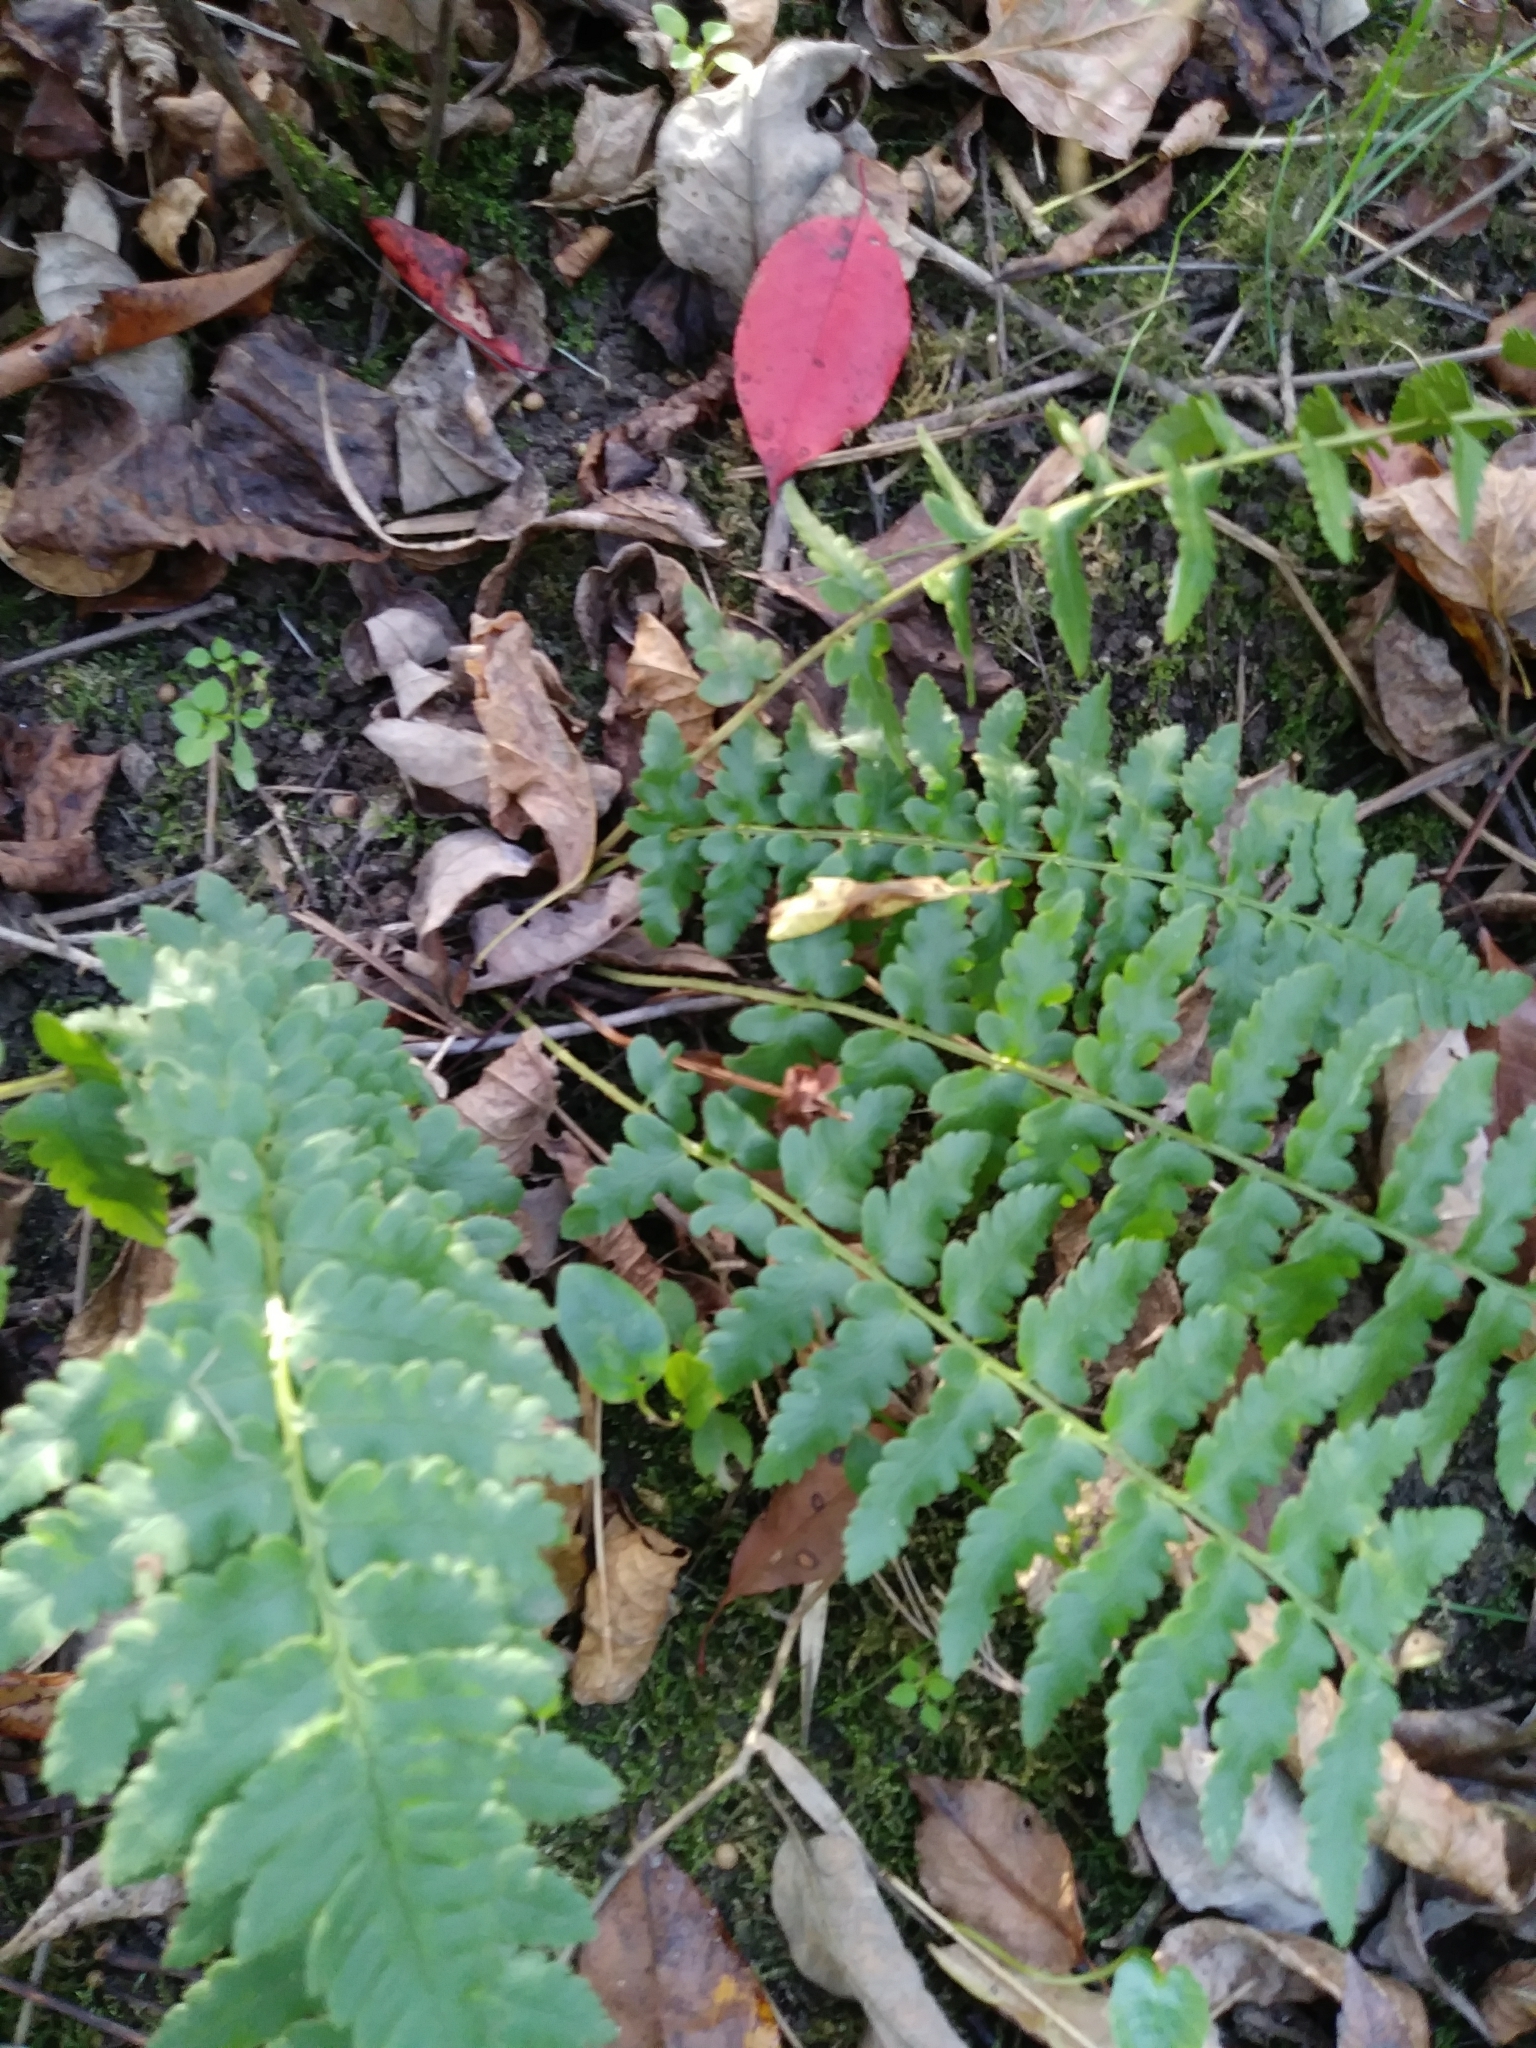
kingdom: Plantae
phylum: Tracheophyta
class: Polypodiopsida
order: Polypodiales
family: Dryopteridaceae
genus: Dryopteris
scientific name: Dryopteris cristata
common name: Crested wood fern
